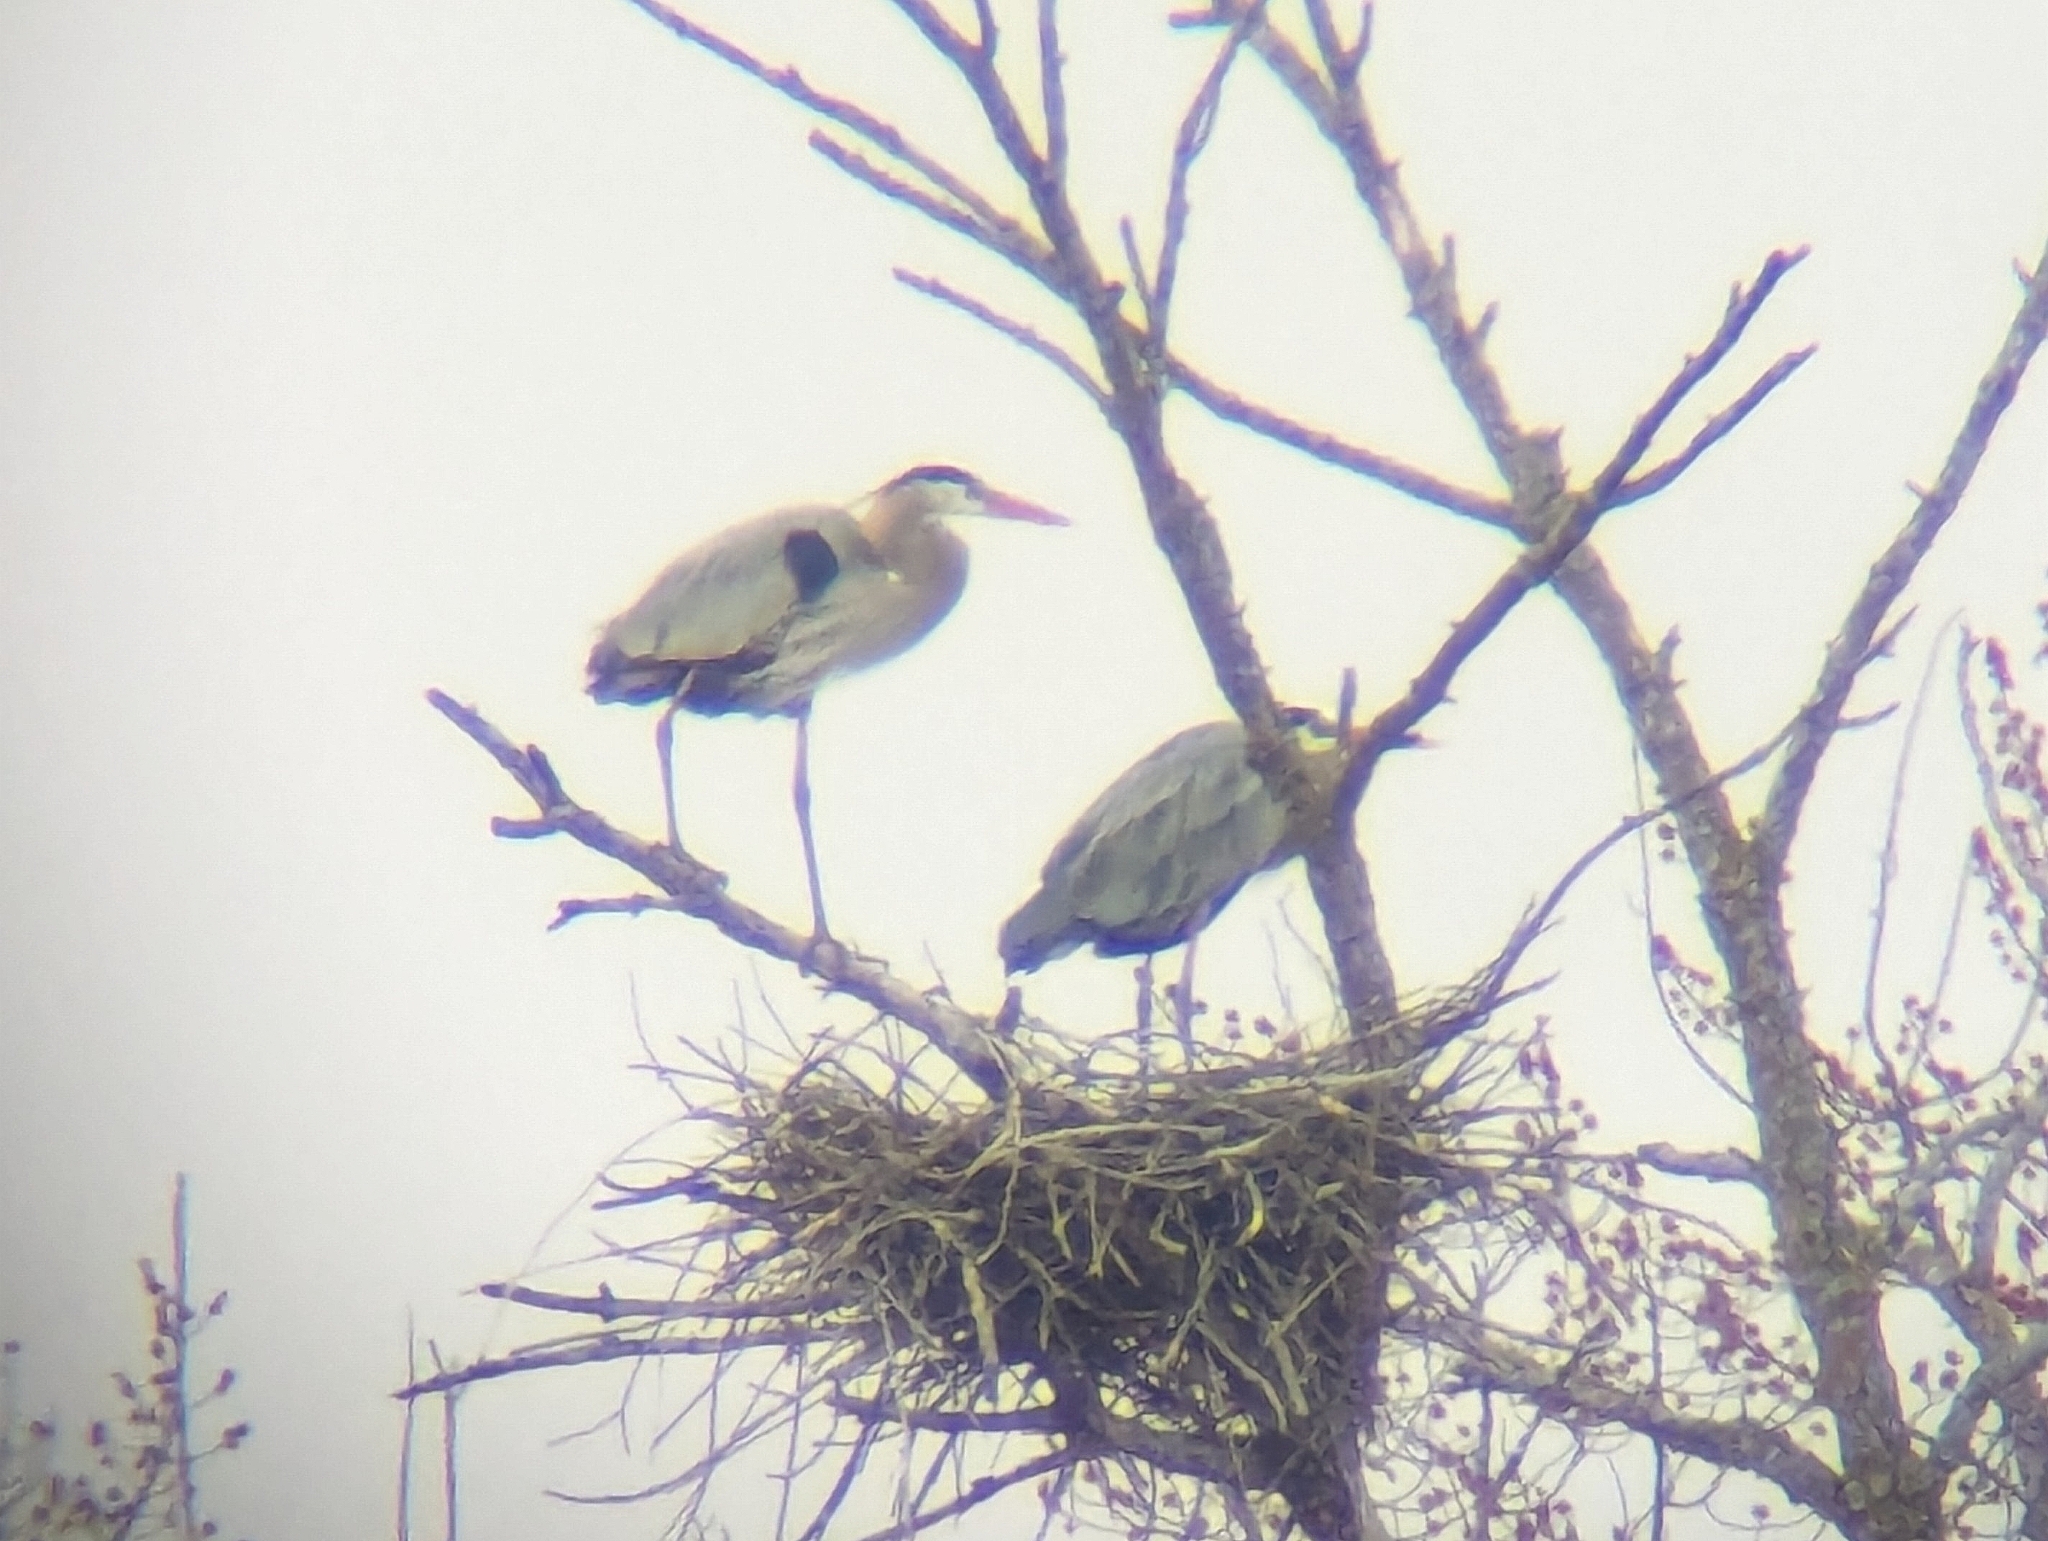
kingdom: Animalia
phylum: Chordata
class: Aves
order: Pelecaniformes
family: Ardeidae
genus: Ardea
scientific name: Ardea herodias
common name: Great blue heron
